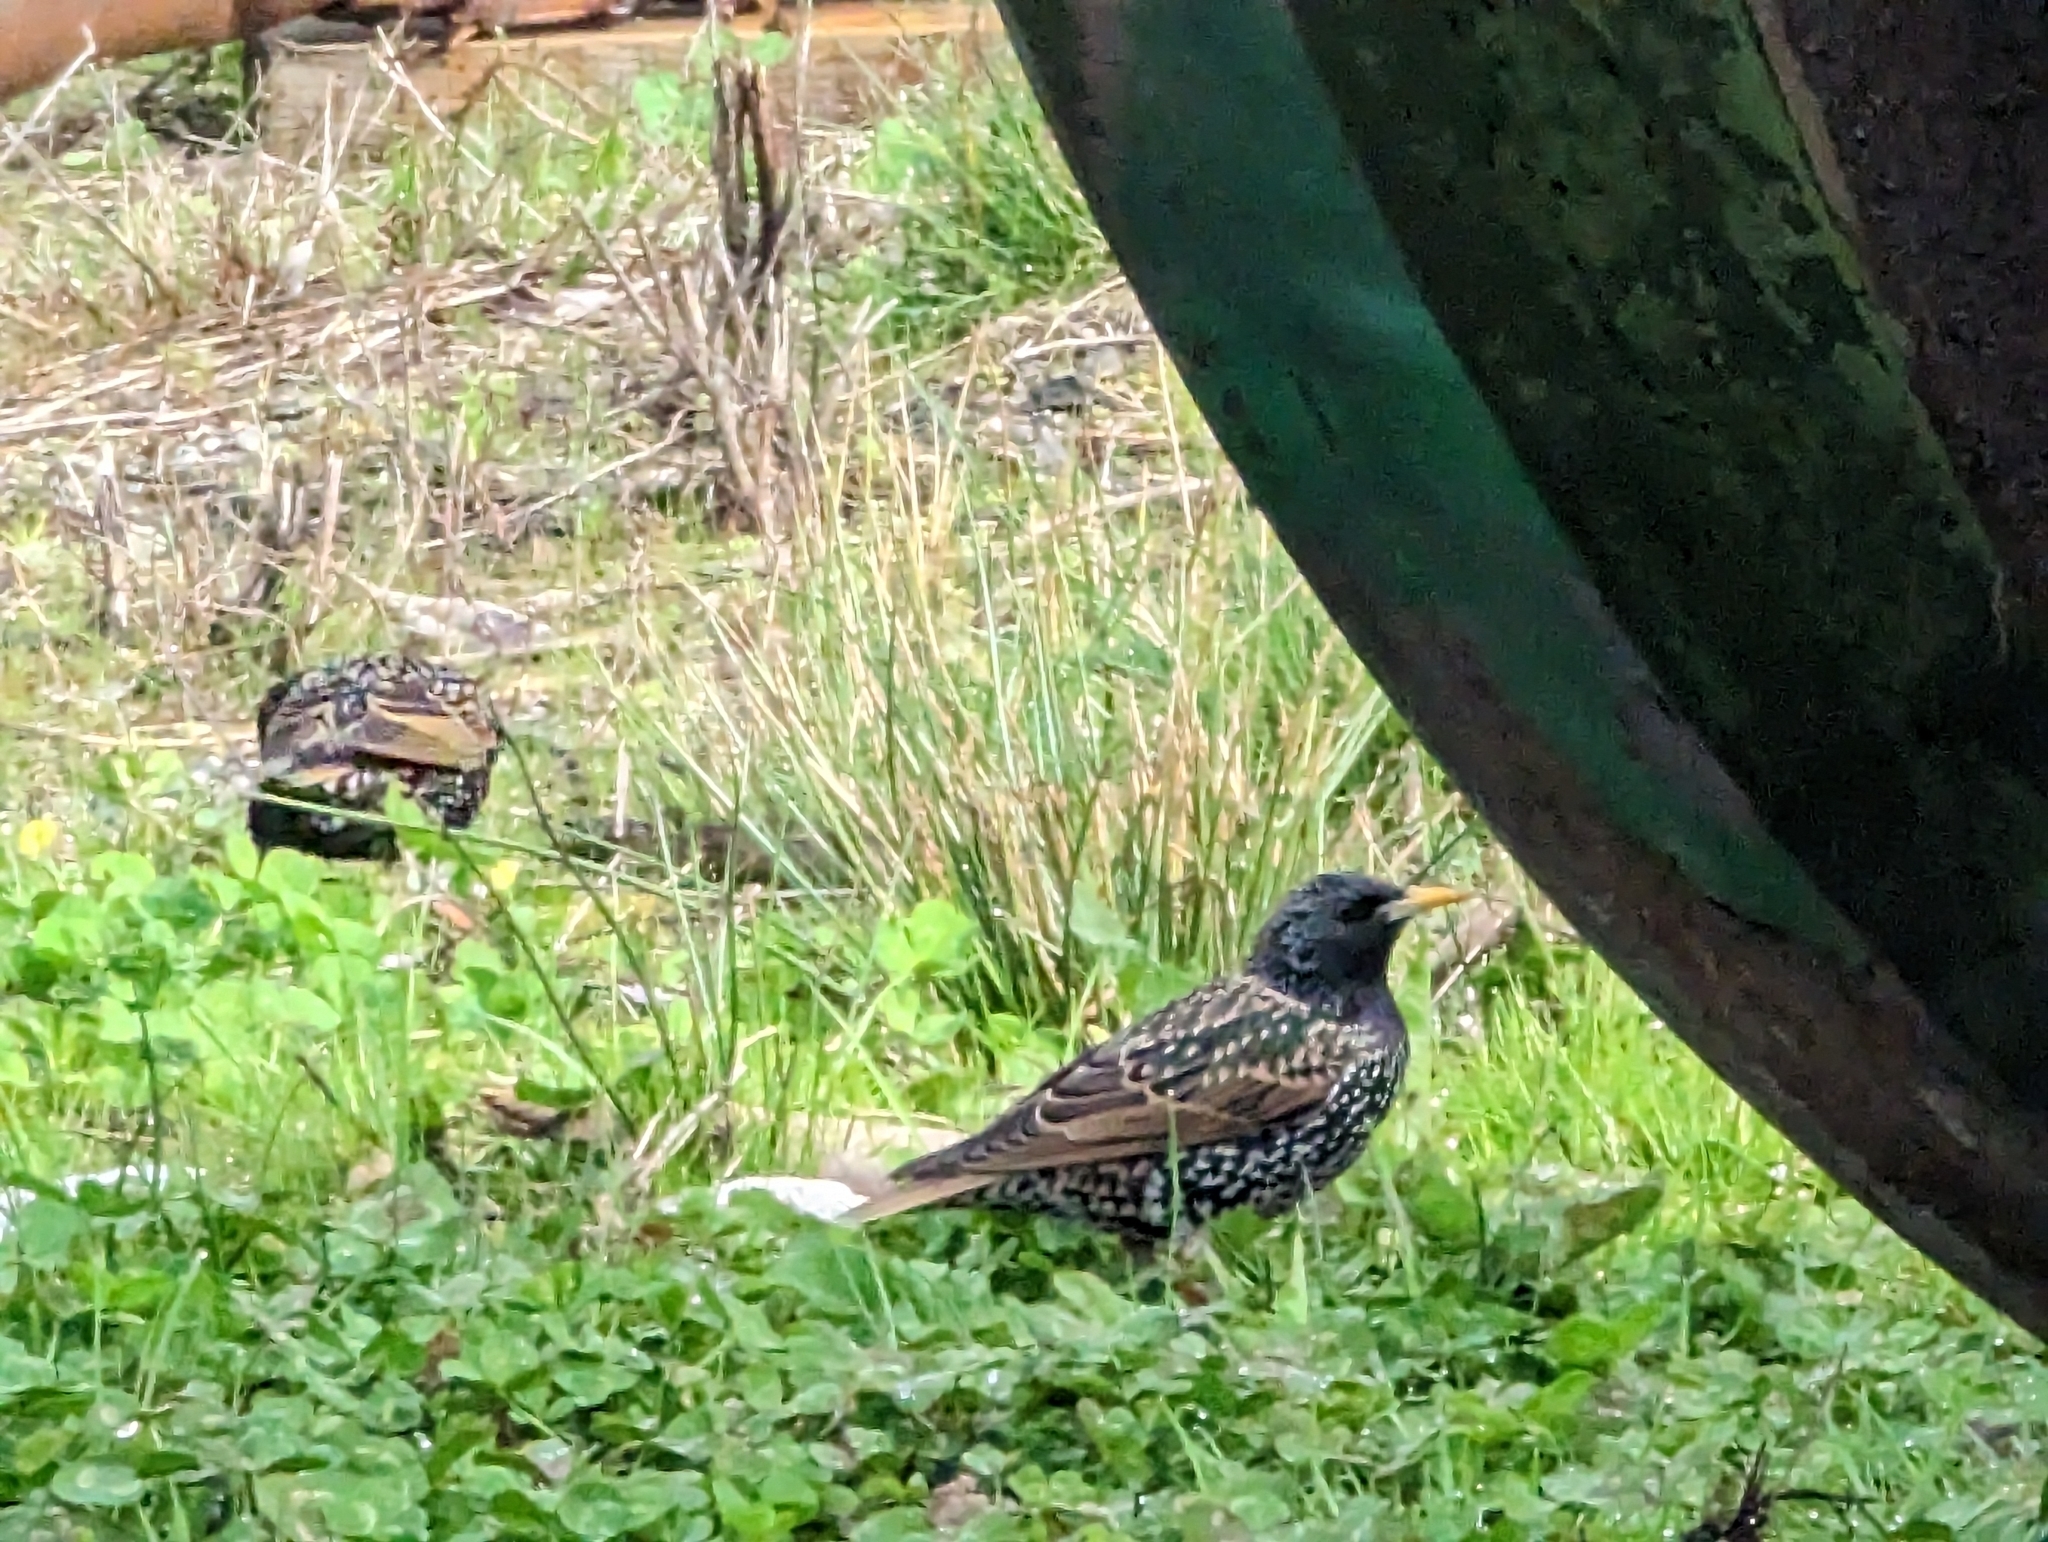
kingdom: Animalia
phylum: Chordata
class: Aves
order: Passeriformes
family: Sturnidae
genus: Sturnus
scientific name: Sturnus vulgaris
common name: Common starling
